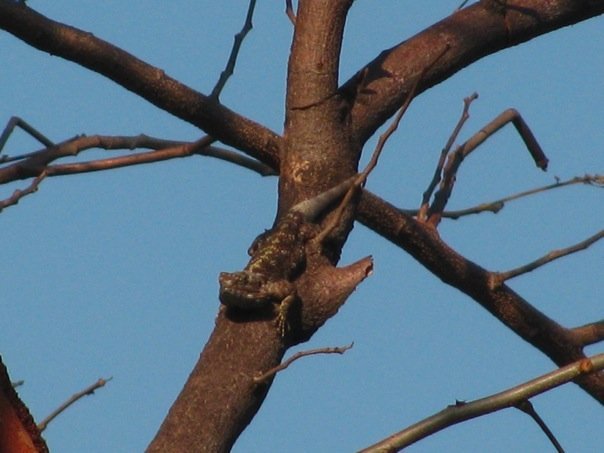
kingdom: Animalia
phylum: Chordata
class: Squamata
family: Agamidae
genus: Acanthocercus
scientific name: Acanthocercus branchi
